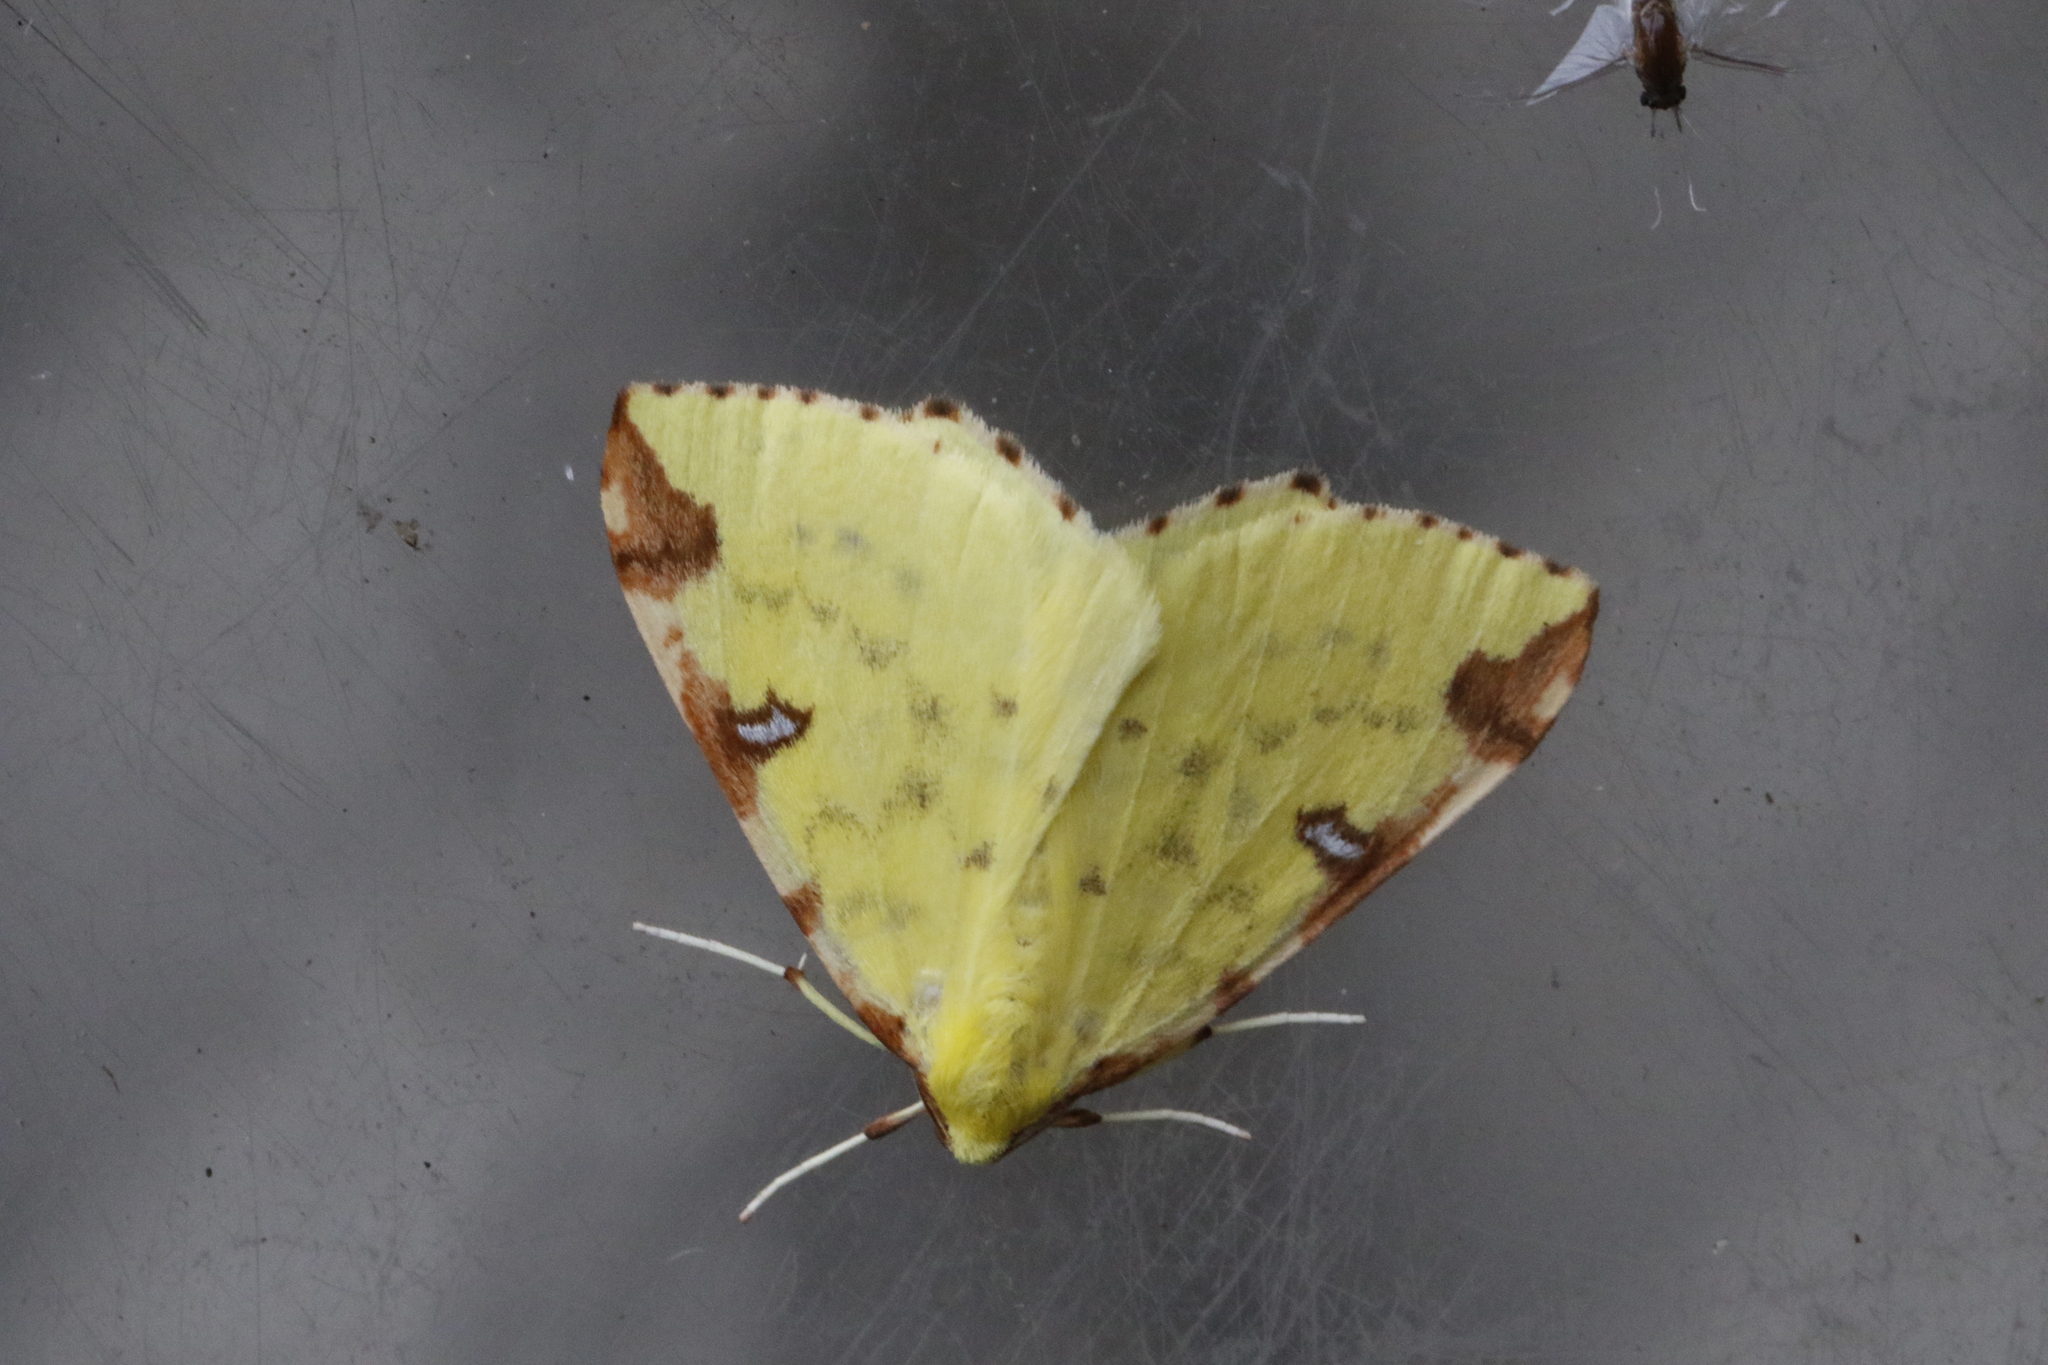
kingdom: Animalia
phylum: Arthropoda
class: Insecta
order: Lepidoptera
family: Geometridae
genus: Opisthograptis
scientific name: Opisthograptis luteolata
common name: Brimstone moth
